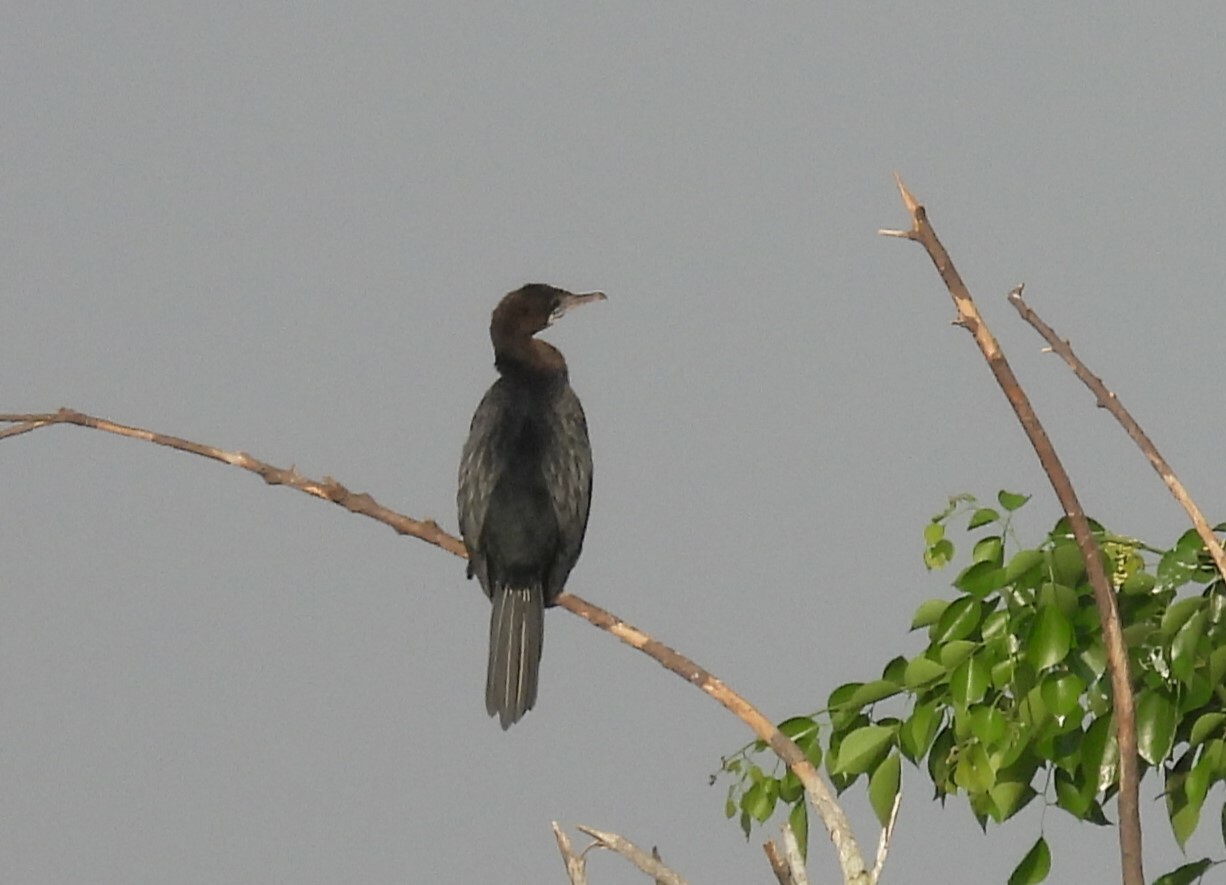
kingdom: Animalia
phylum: Chordata
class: Aves
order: Suliformes
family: Phalacrocoracidae
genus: Microcarbo
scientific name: Microcarbo niger
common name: Little cormorant
